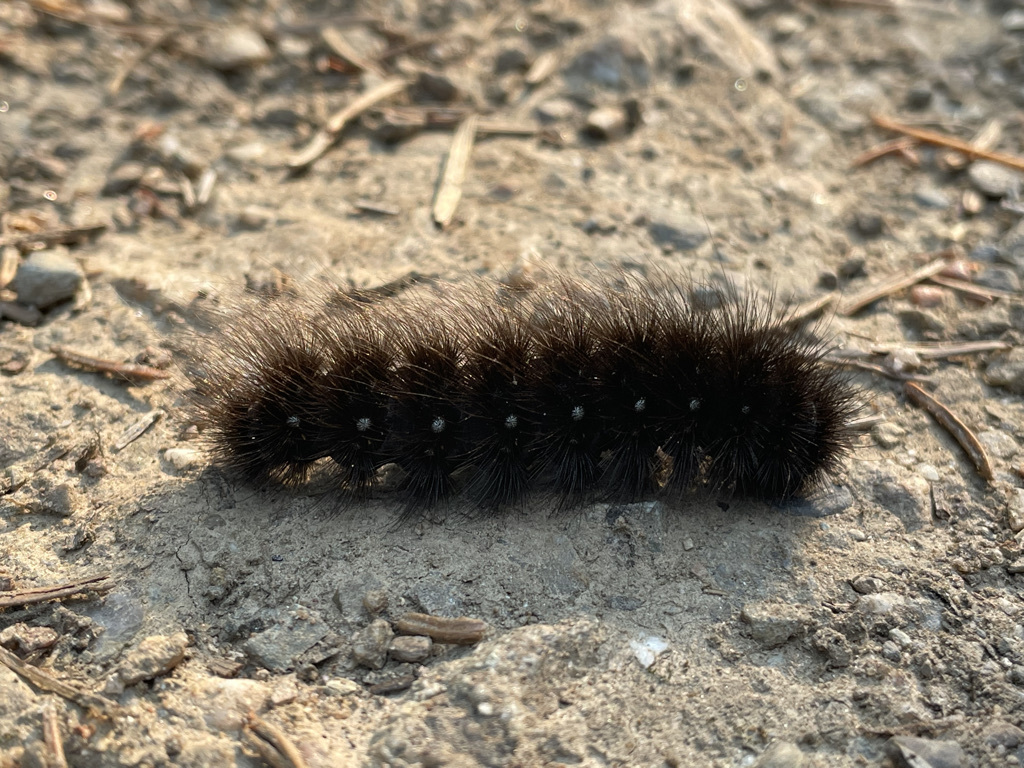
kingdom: Animalia
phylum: Arthropoda
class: Insecta
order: Lepidoptera
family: Erebidae
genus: Arctia
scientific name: Arctia parthenos
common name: St. lawrence tiger moth
